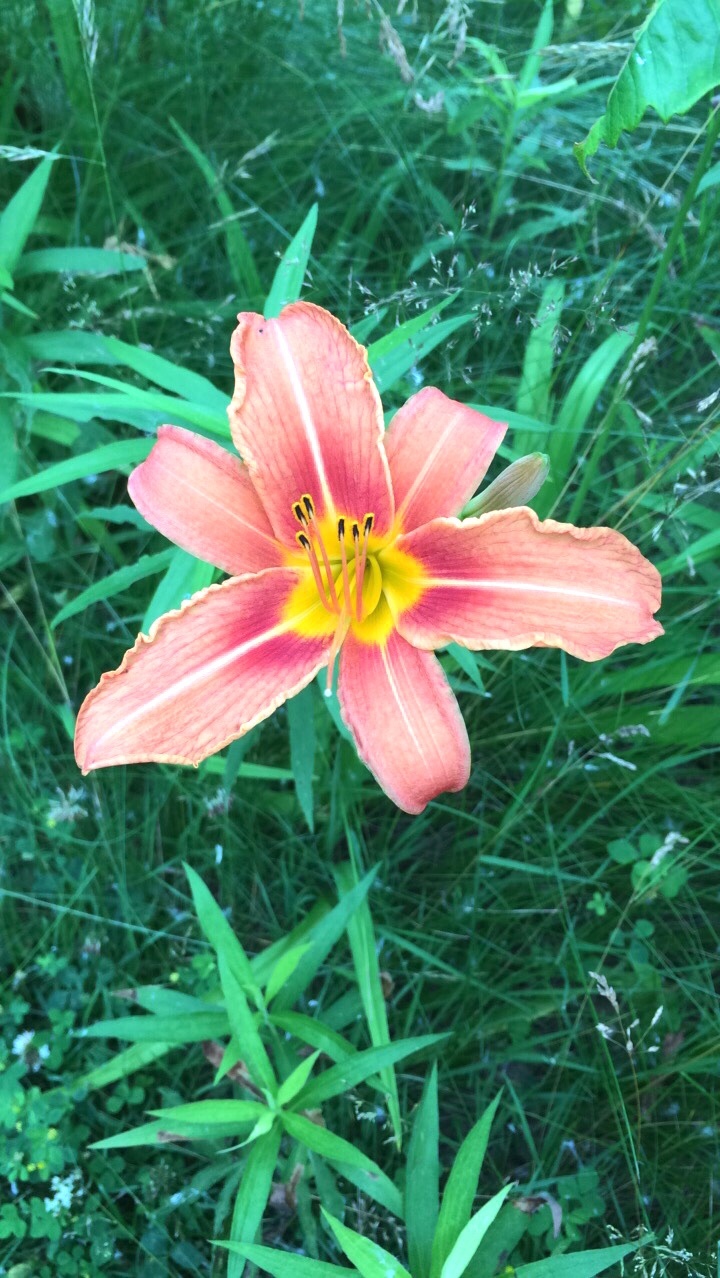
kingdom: Plantae
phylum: Tracheophyta
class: Liliopsida
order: Asparagales
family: Asphodelaceae
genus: Hemerocallis
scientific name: Hemerocallis fulva
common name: Orange day-lily
